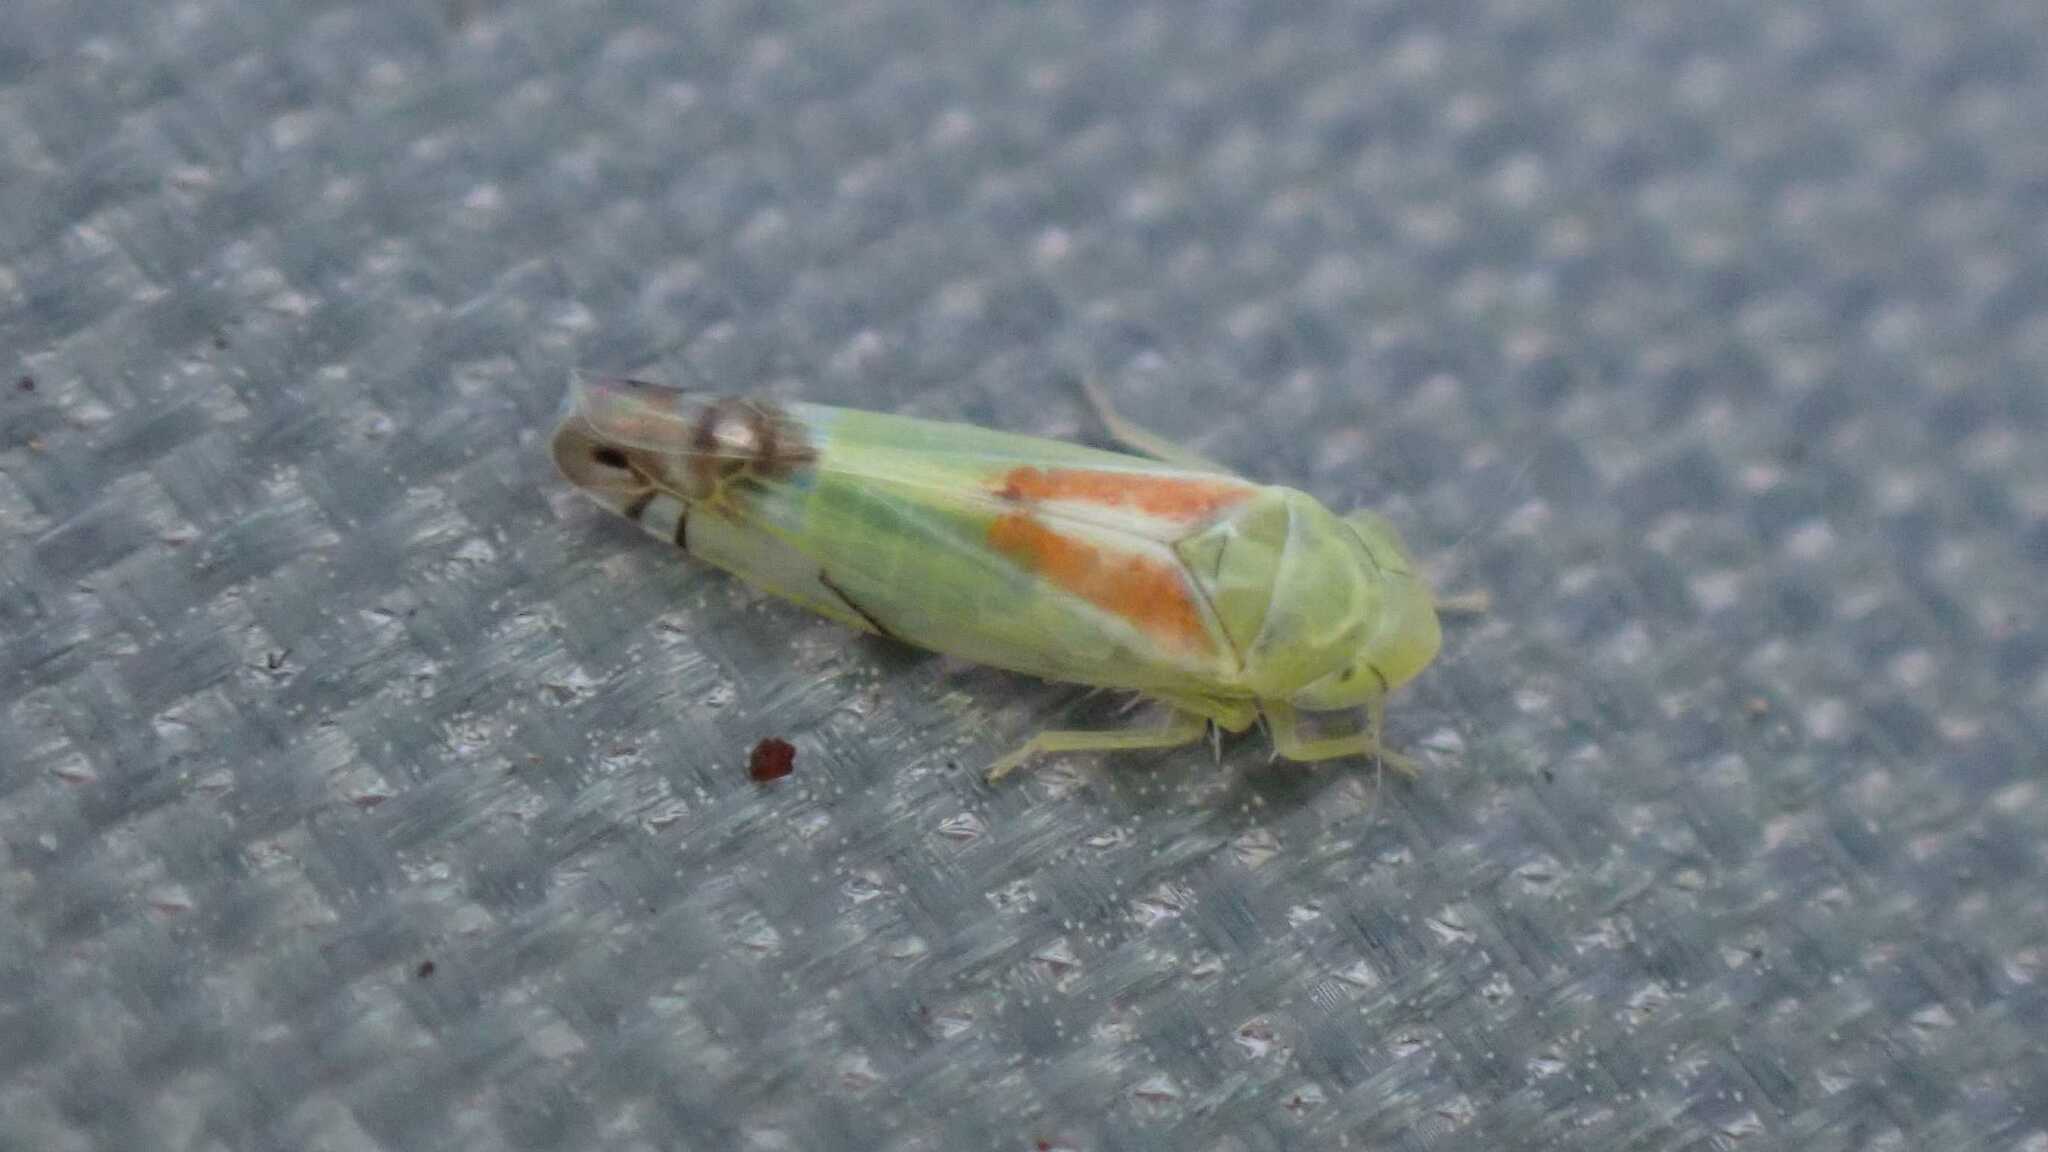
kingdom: Animalia
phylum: Arthropoda
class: Insecta
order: Hemiptera
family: Cicadellidae
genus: Zyginella
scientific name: Zyginella pulchra
